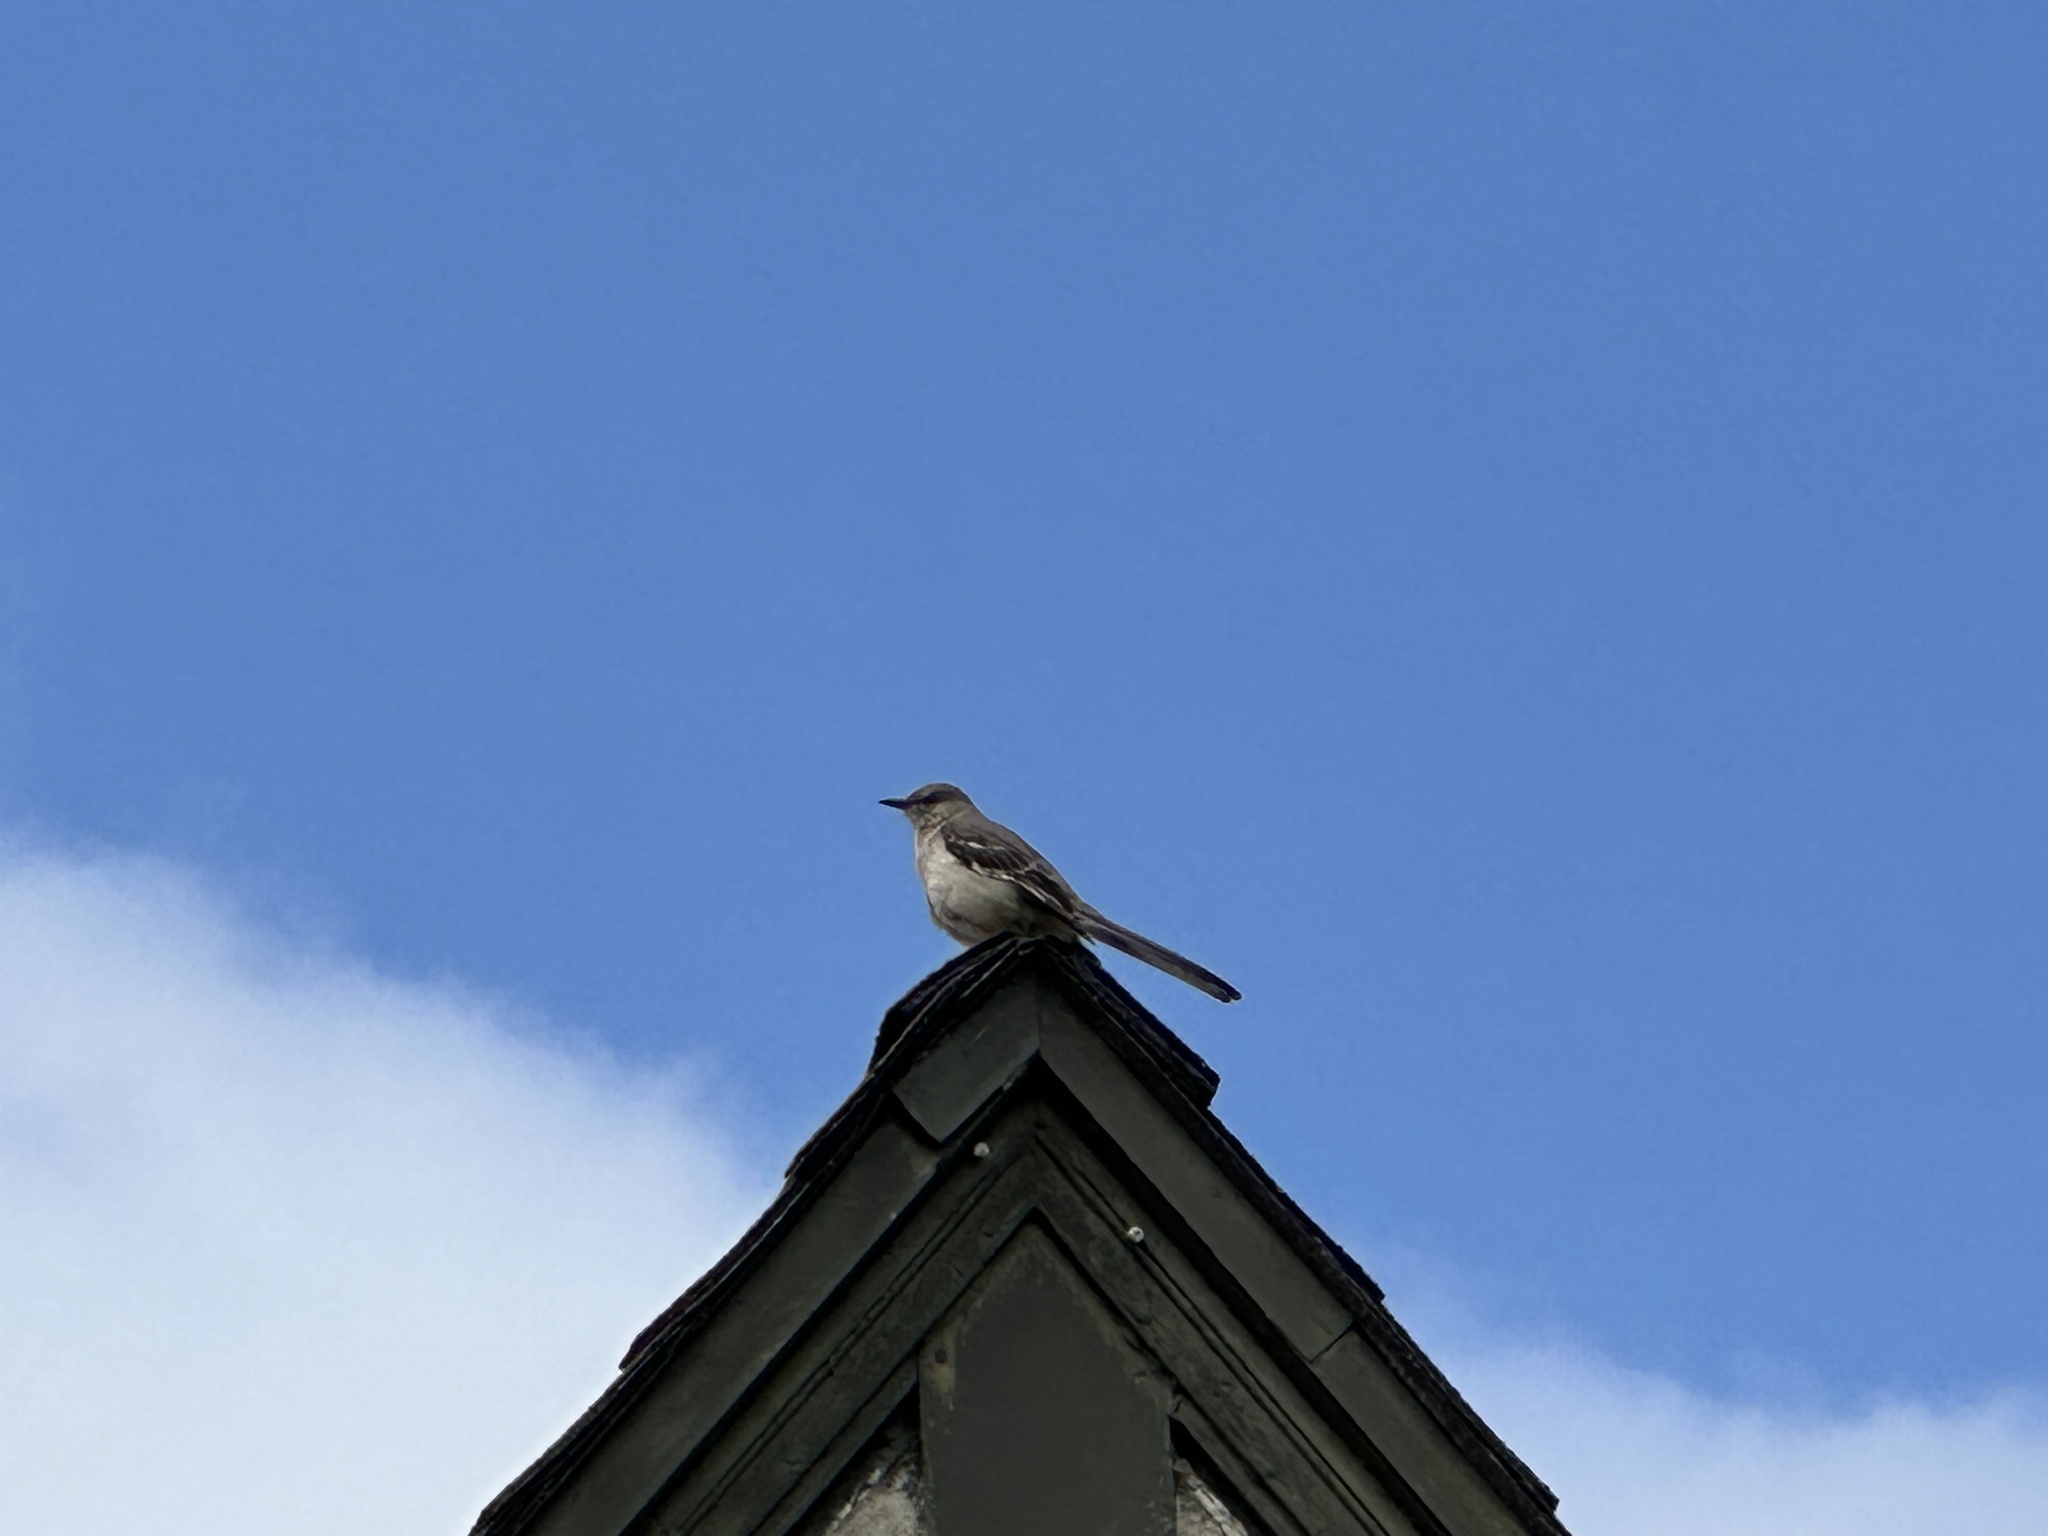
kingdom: Animalia
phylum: Chordata
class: Aves
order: Passeriformes
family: Mimidae
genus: Mimus
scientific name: Mimus polyglottos
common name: Northern mockingbird
